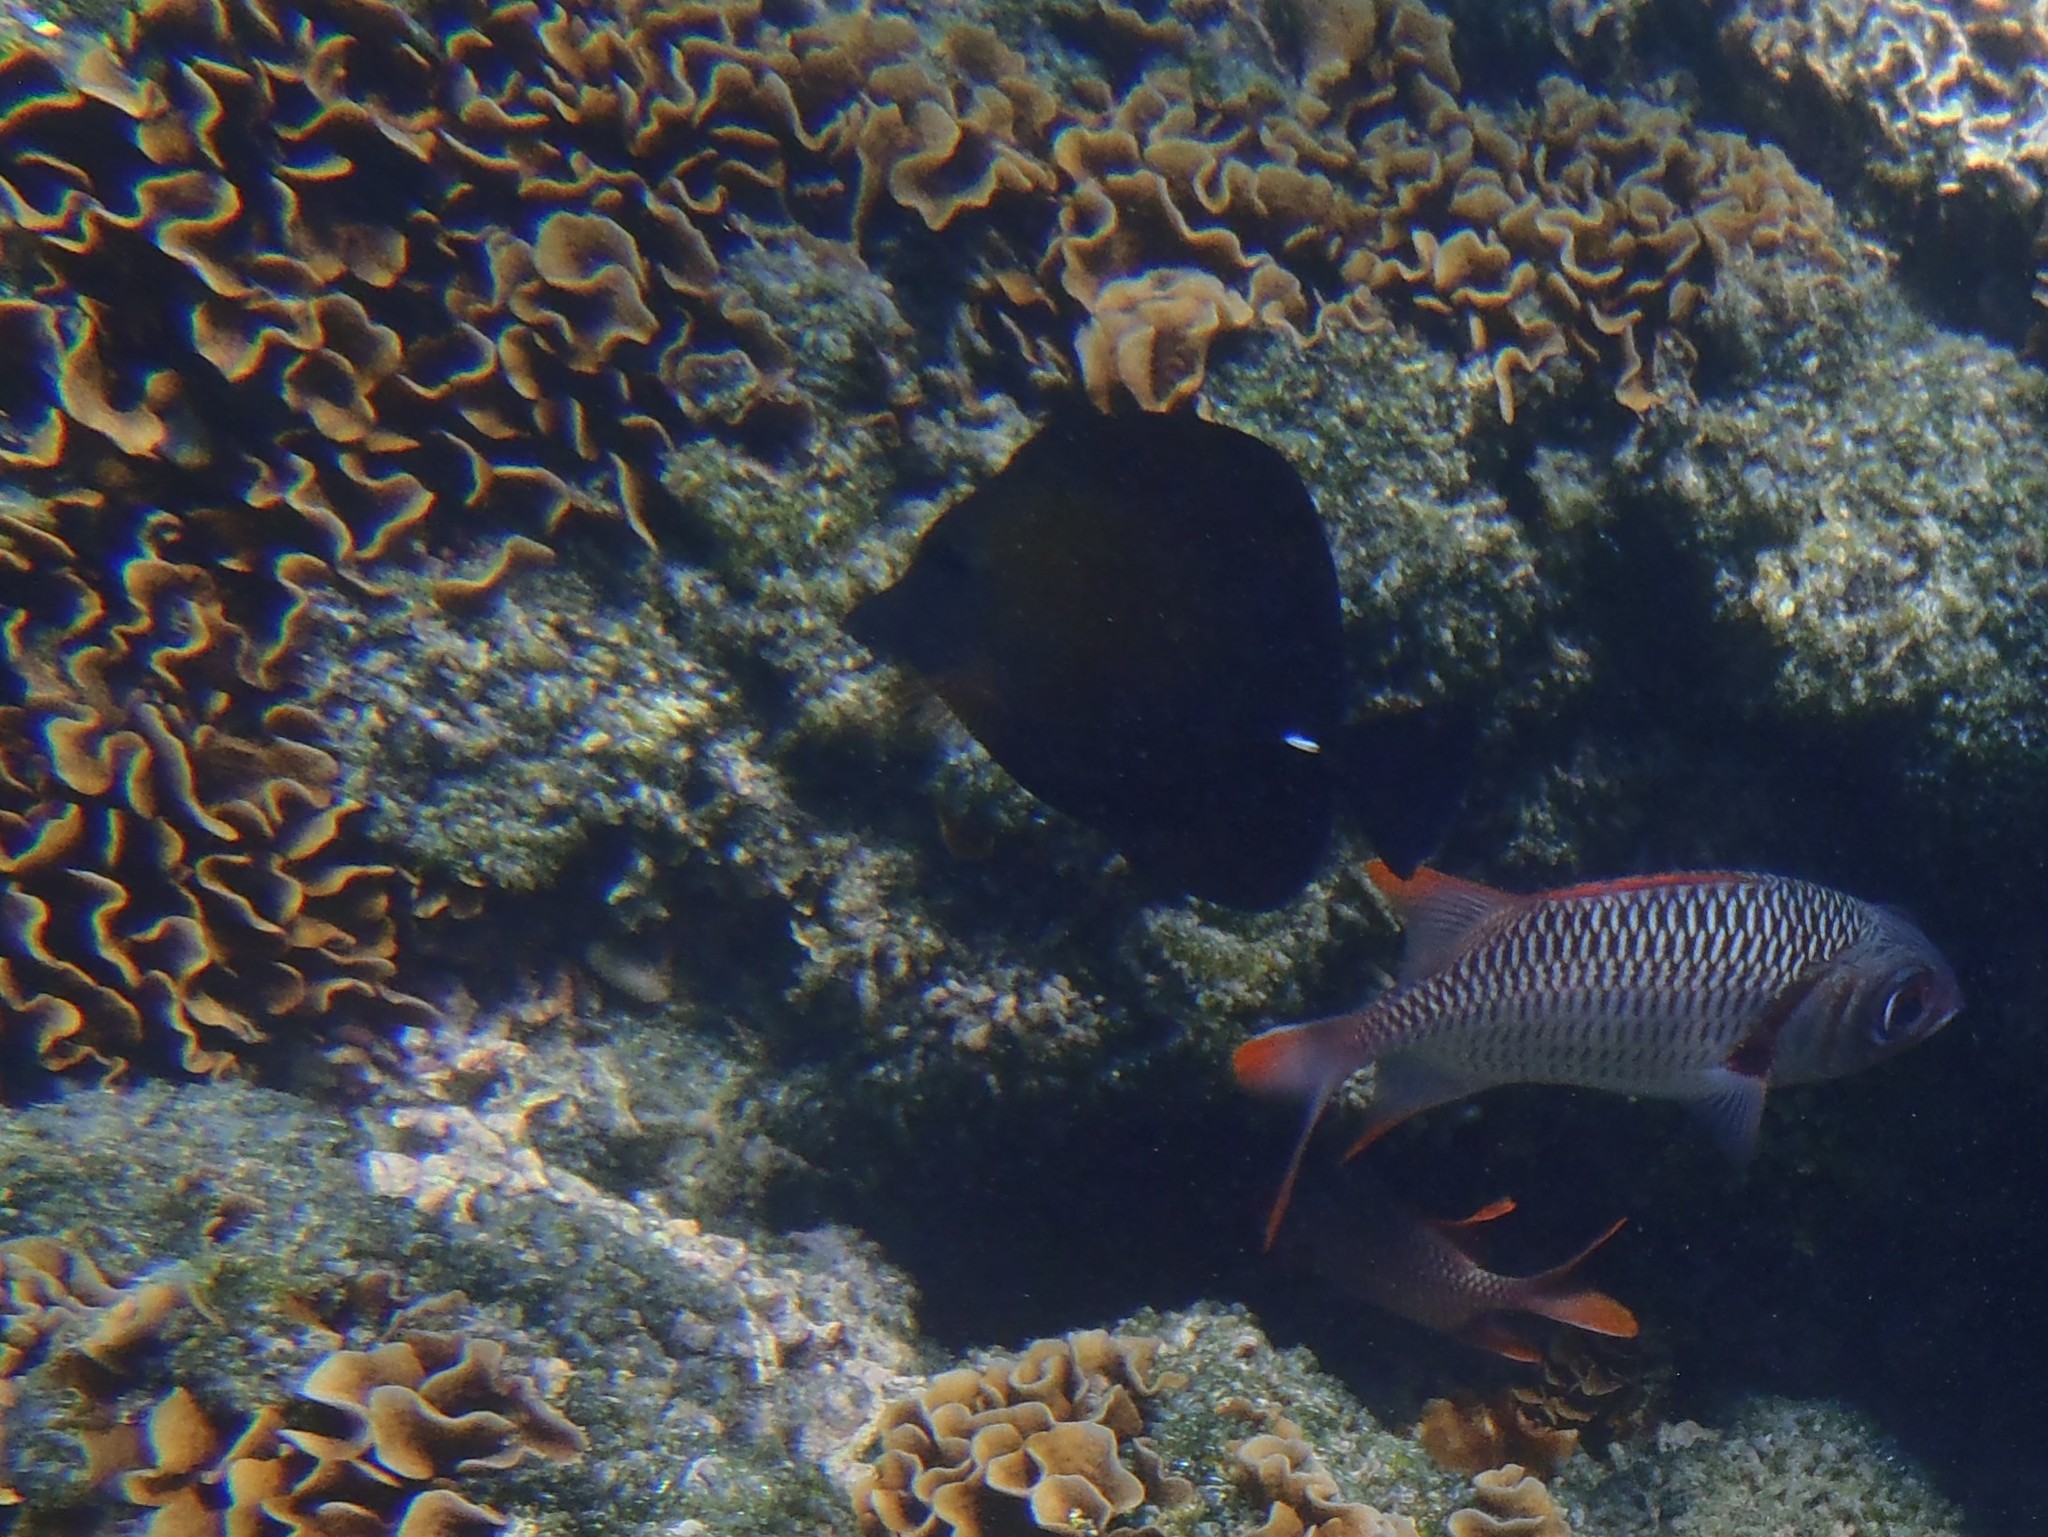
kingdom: Animalia
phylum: Chordata
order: Perciformes
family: Acanthuridae
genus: Zebrasoma
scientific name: Zebrasoma scopas
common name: Twotone tang
